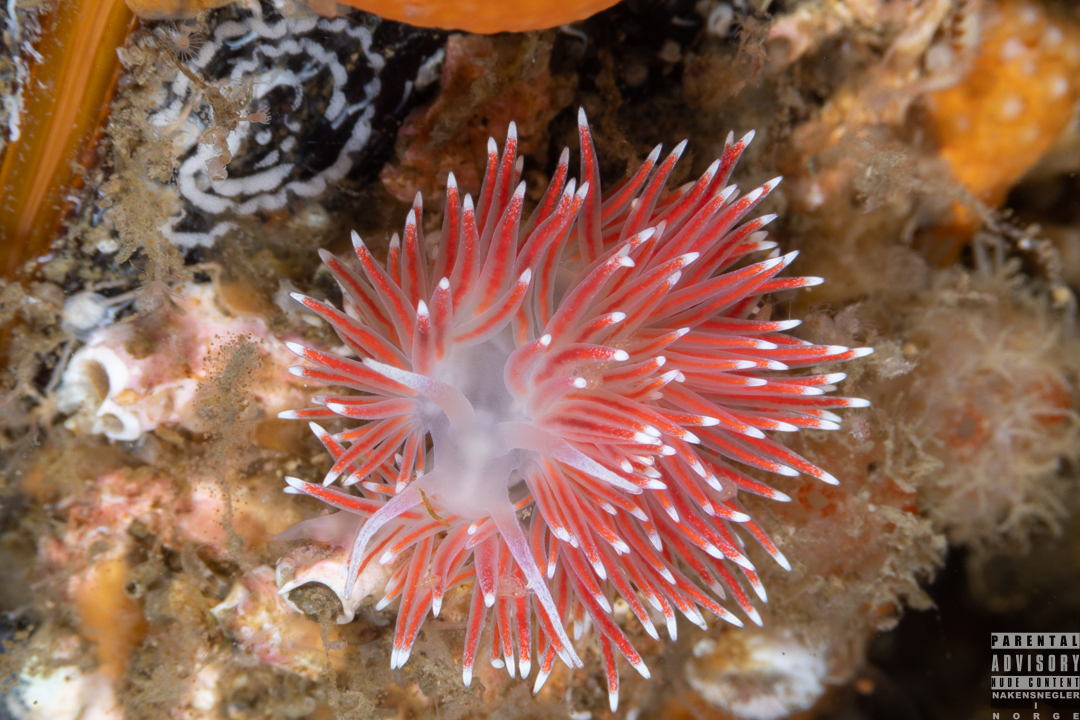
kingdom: Animalia
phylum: Mollusca
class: Gastropoda
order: Nudibranchia
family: Flabellinidae
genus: Carronella
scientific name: Carronella pellucida
